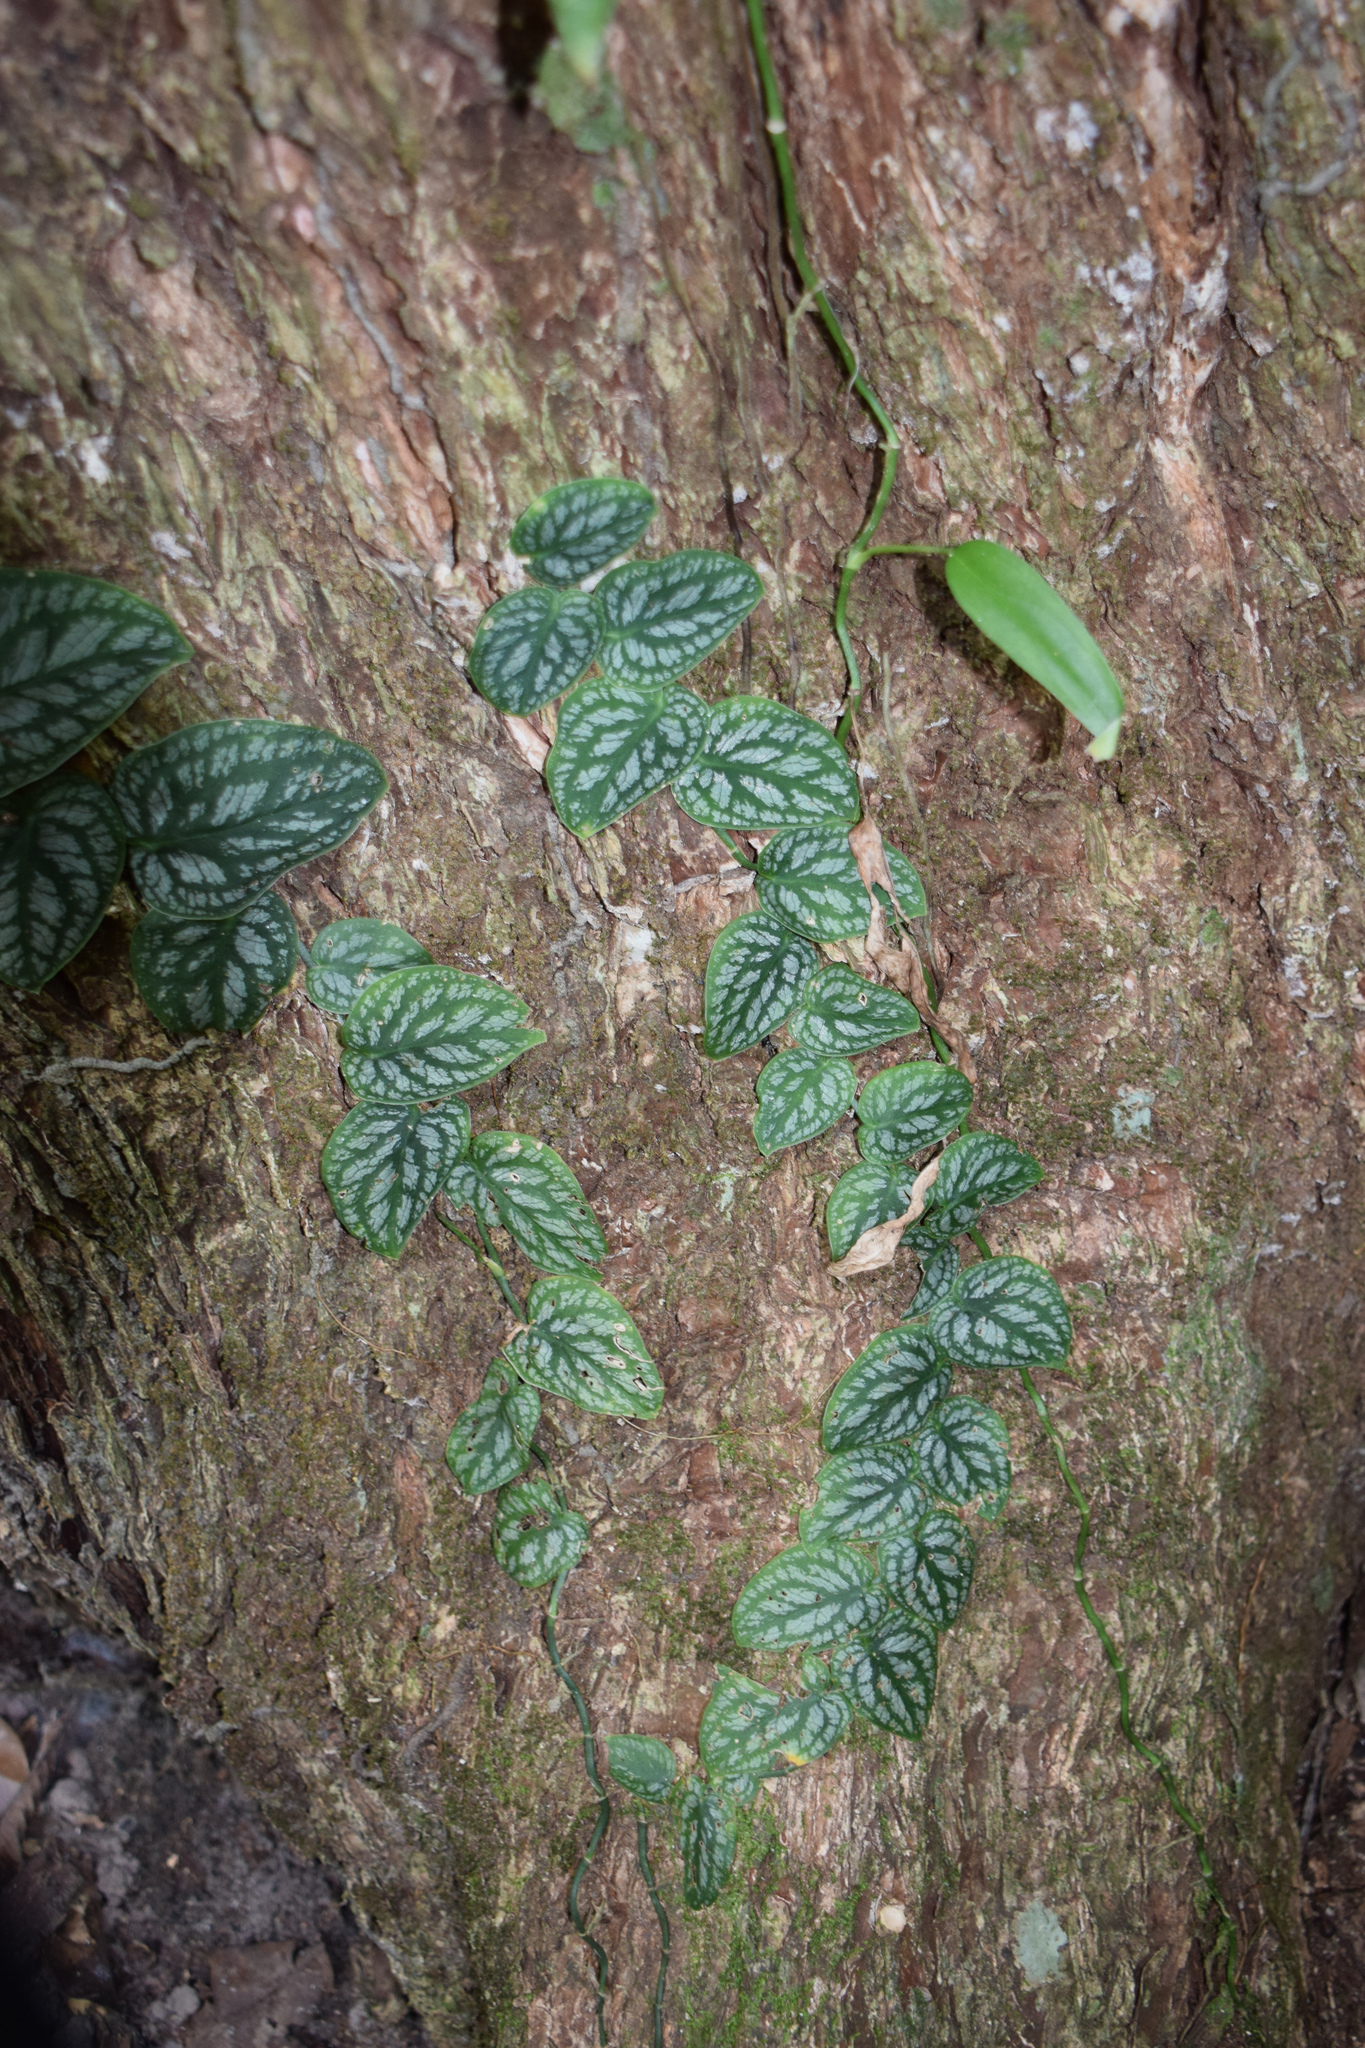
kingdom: Plantae
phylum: Tracheophyta
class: Liliopsida
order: Alismatales
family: Araceae
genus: Monstera
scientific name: Monstera dubia
